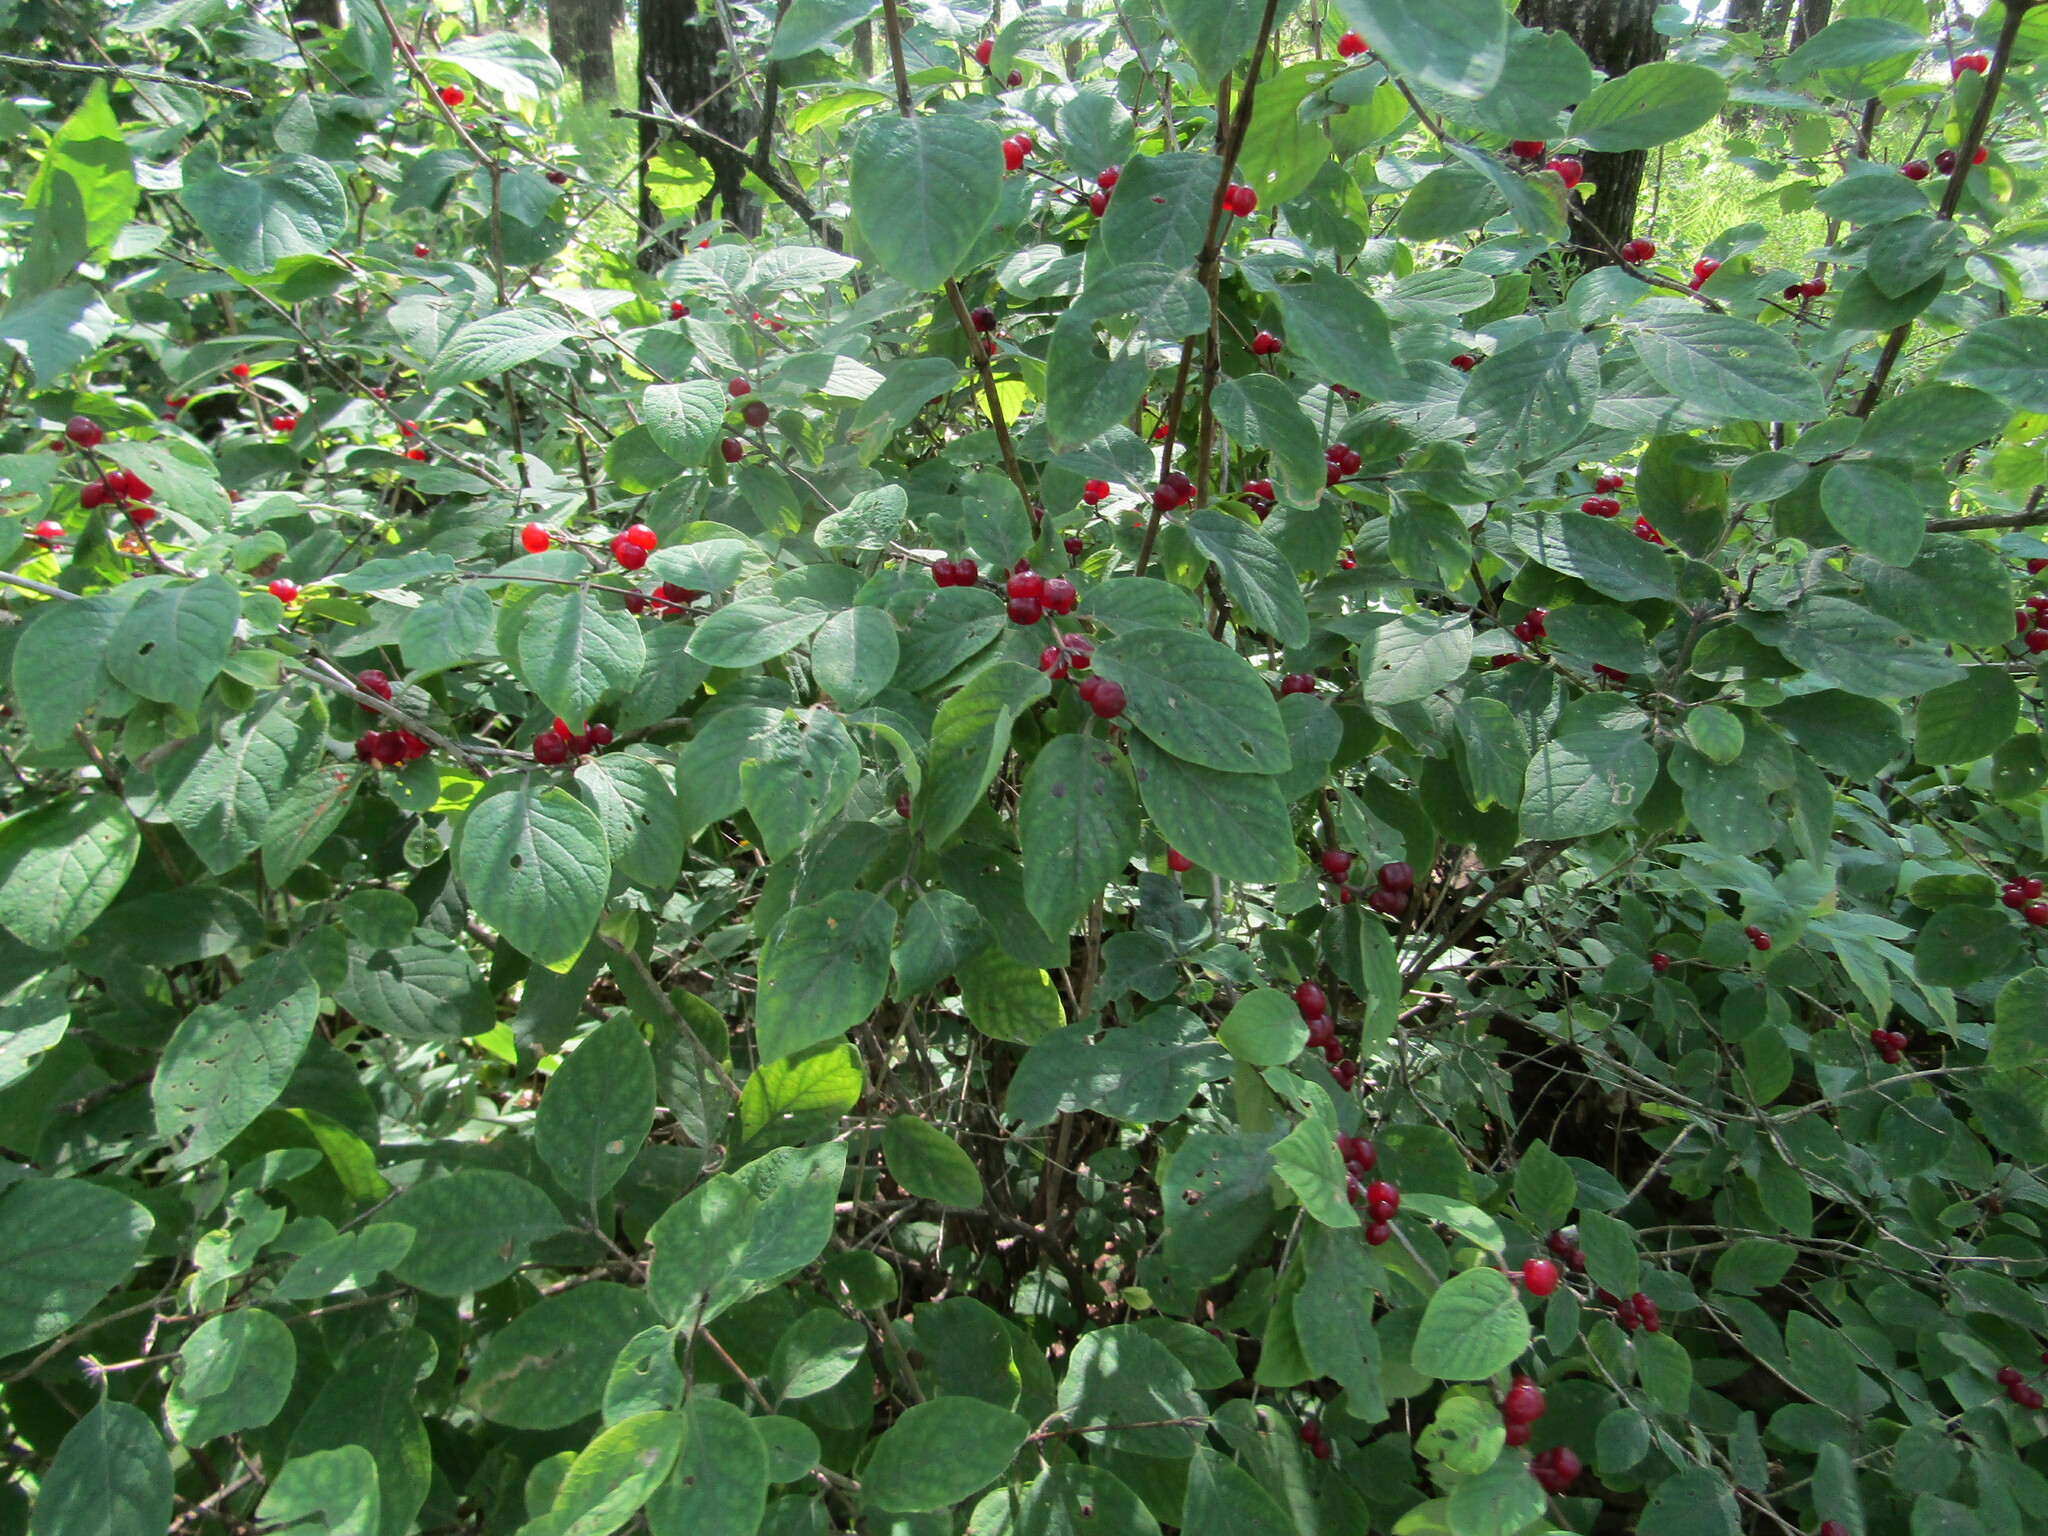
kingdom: Plantae
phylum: Tracheophyta
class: Magnoliopsida
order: Dipsacales
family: Caprifoliaceae
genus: Lonicera
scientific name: Lonicera xylosteum
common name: Fly honeysuckle
